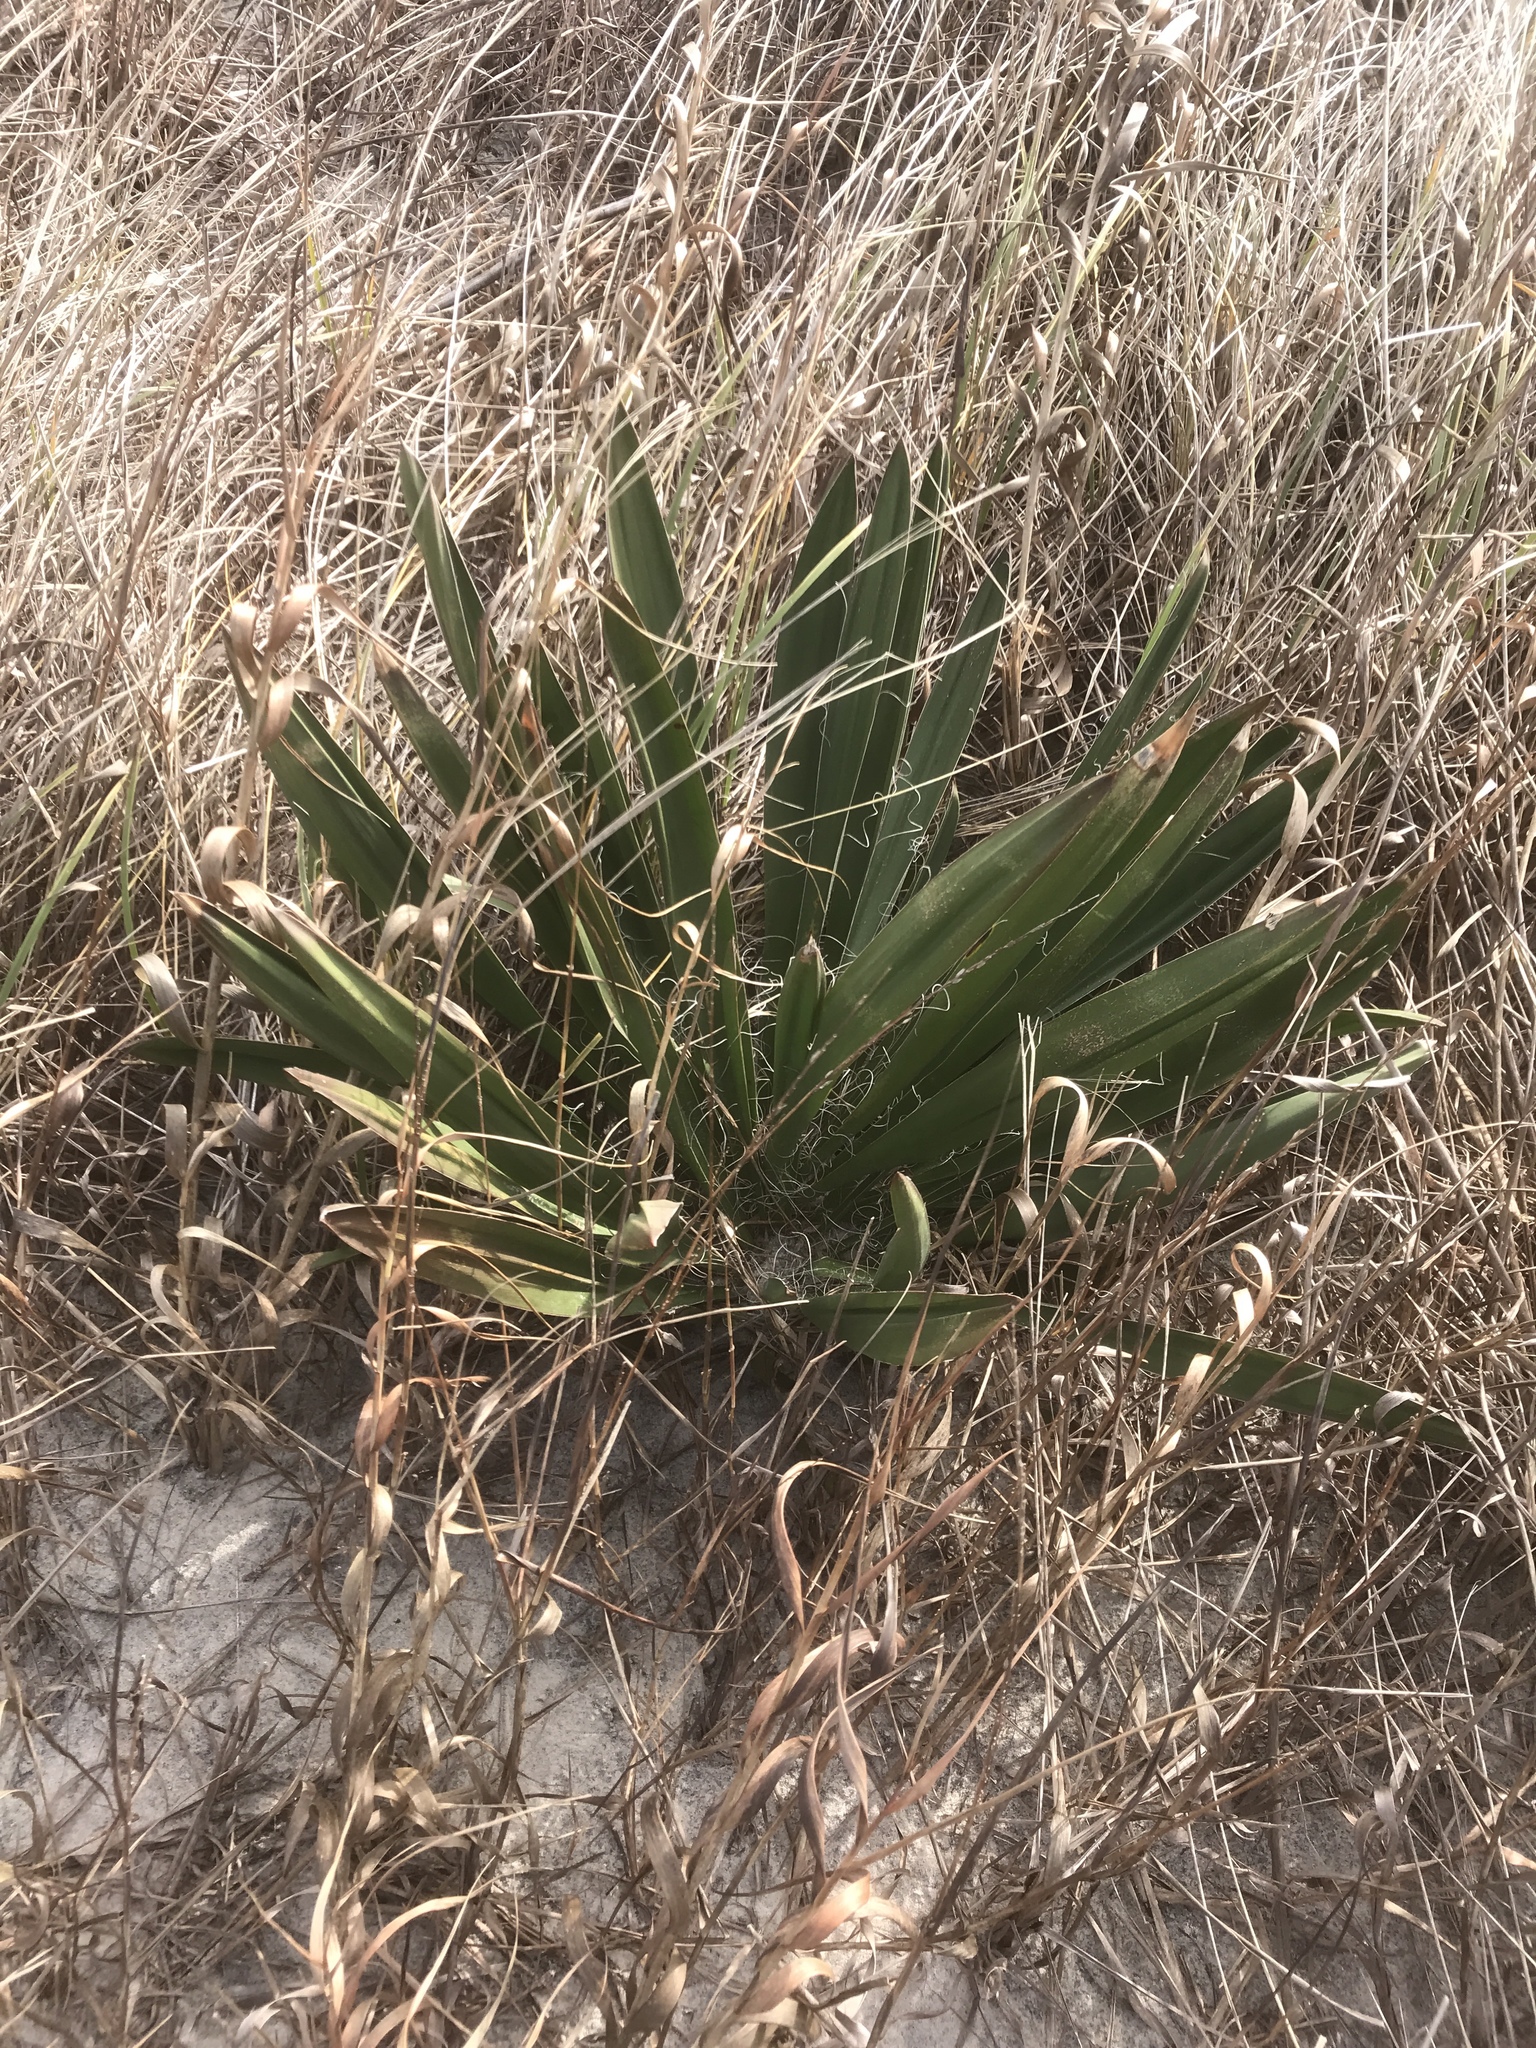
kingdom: Plantae
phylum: Tracheophyta
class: Liliopsida
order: Asparagales
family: Asparagaceae
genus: Yucca
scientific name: Yucca filamentosa
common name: Adam's-needle
